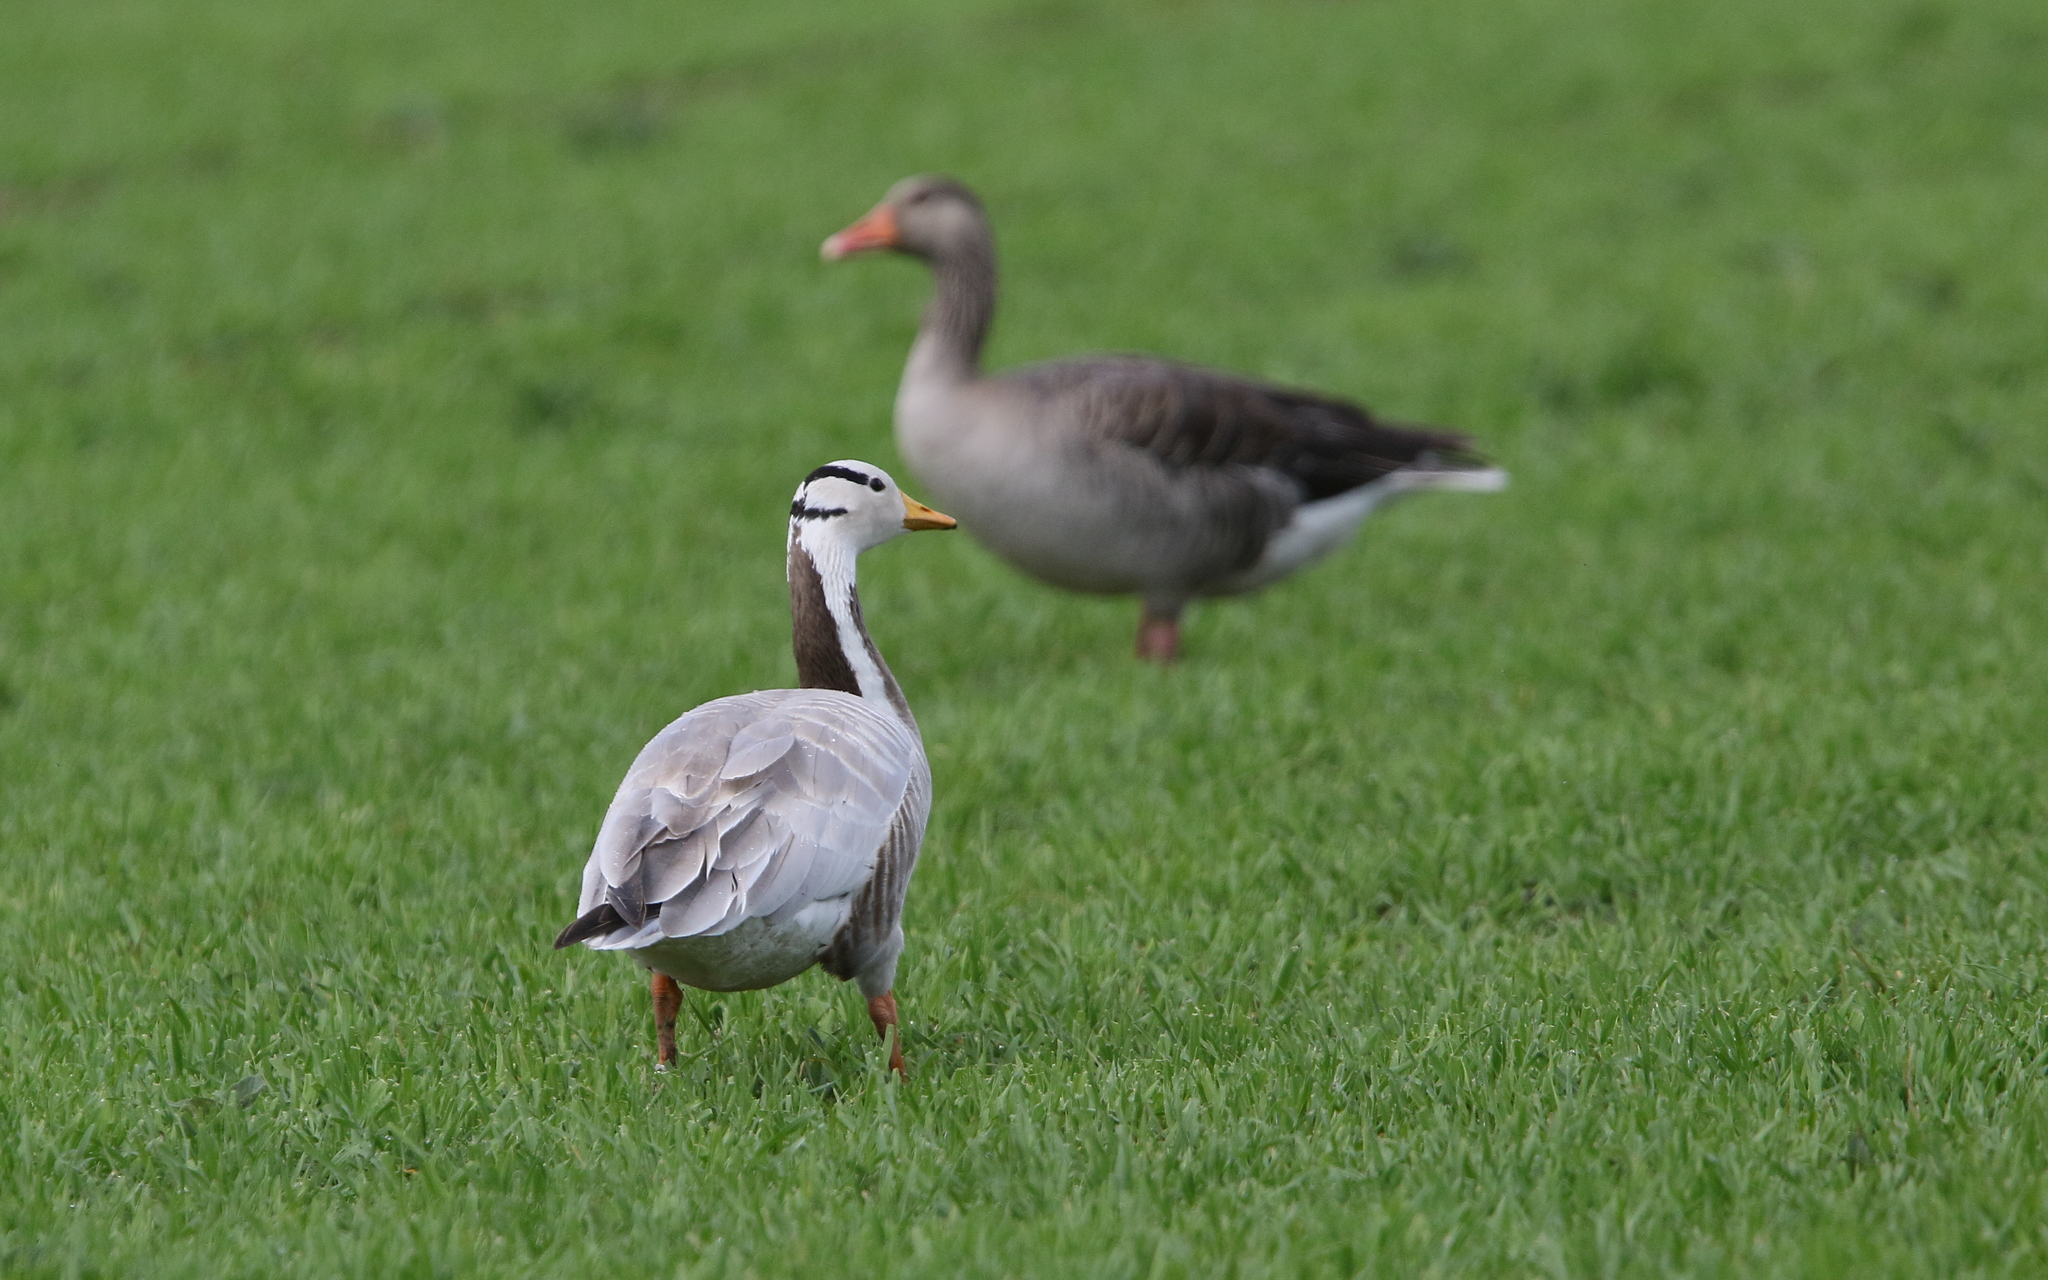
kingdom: Animalia
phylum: Chordata
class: Aves
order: Anseriformes
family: Anatidae
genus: Anser
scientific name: Anser indicus
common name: Bar-headed goose
